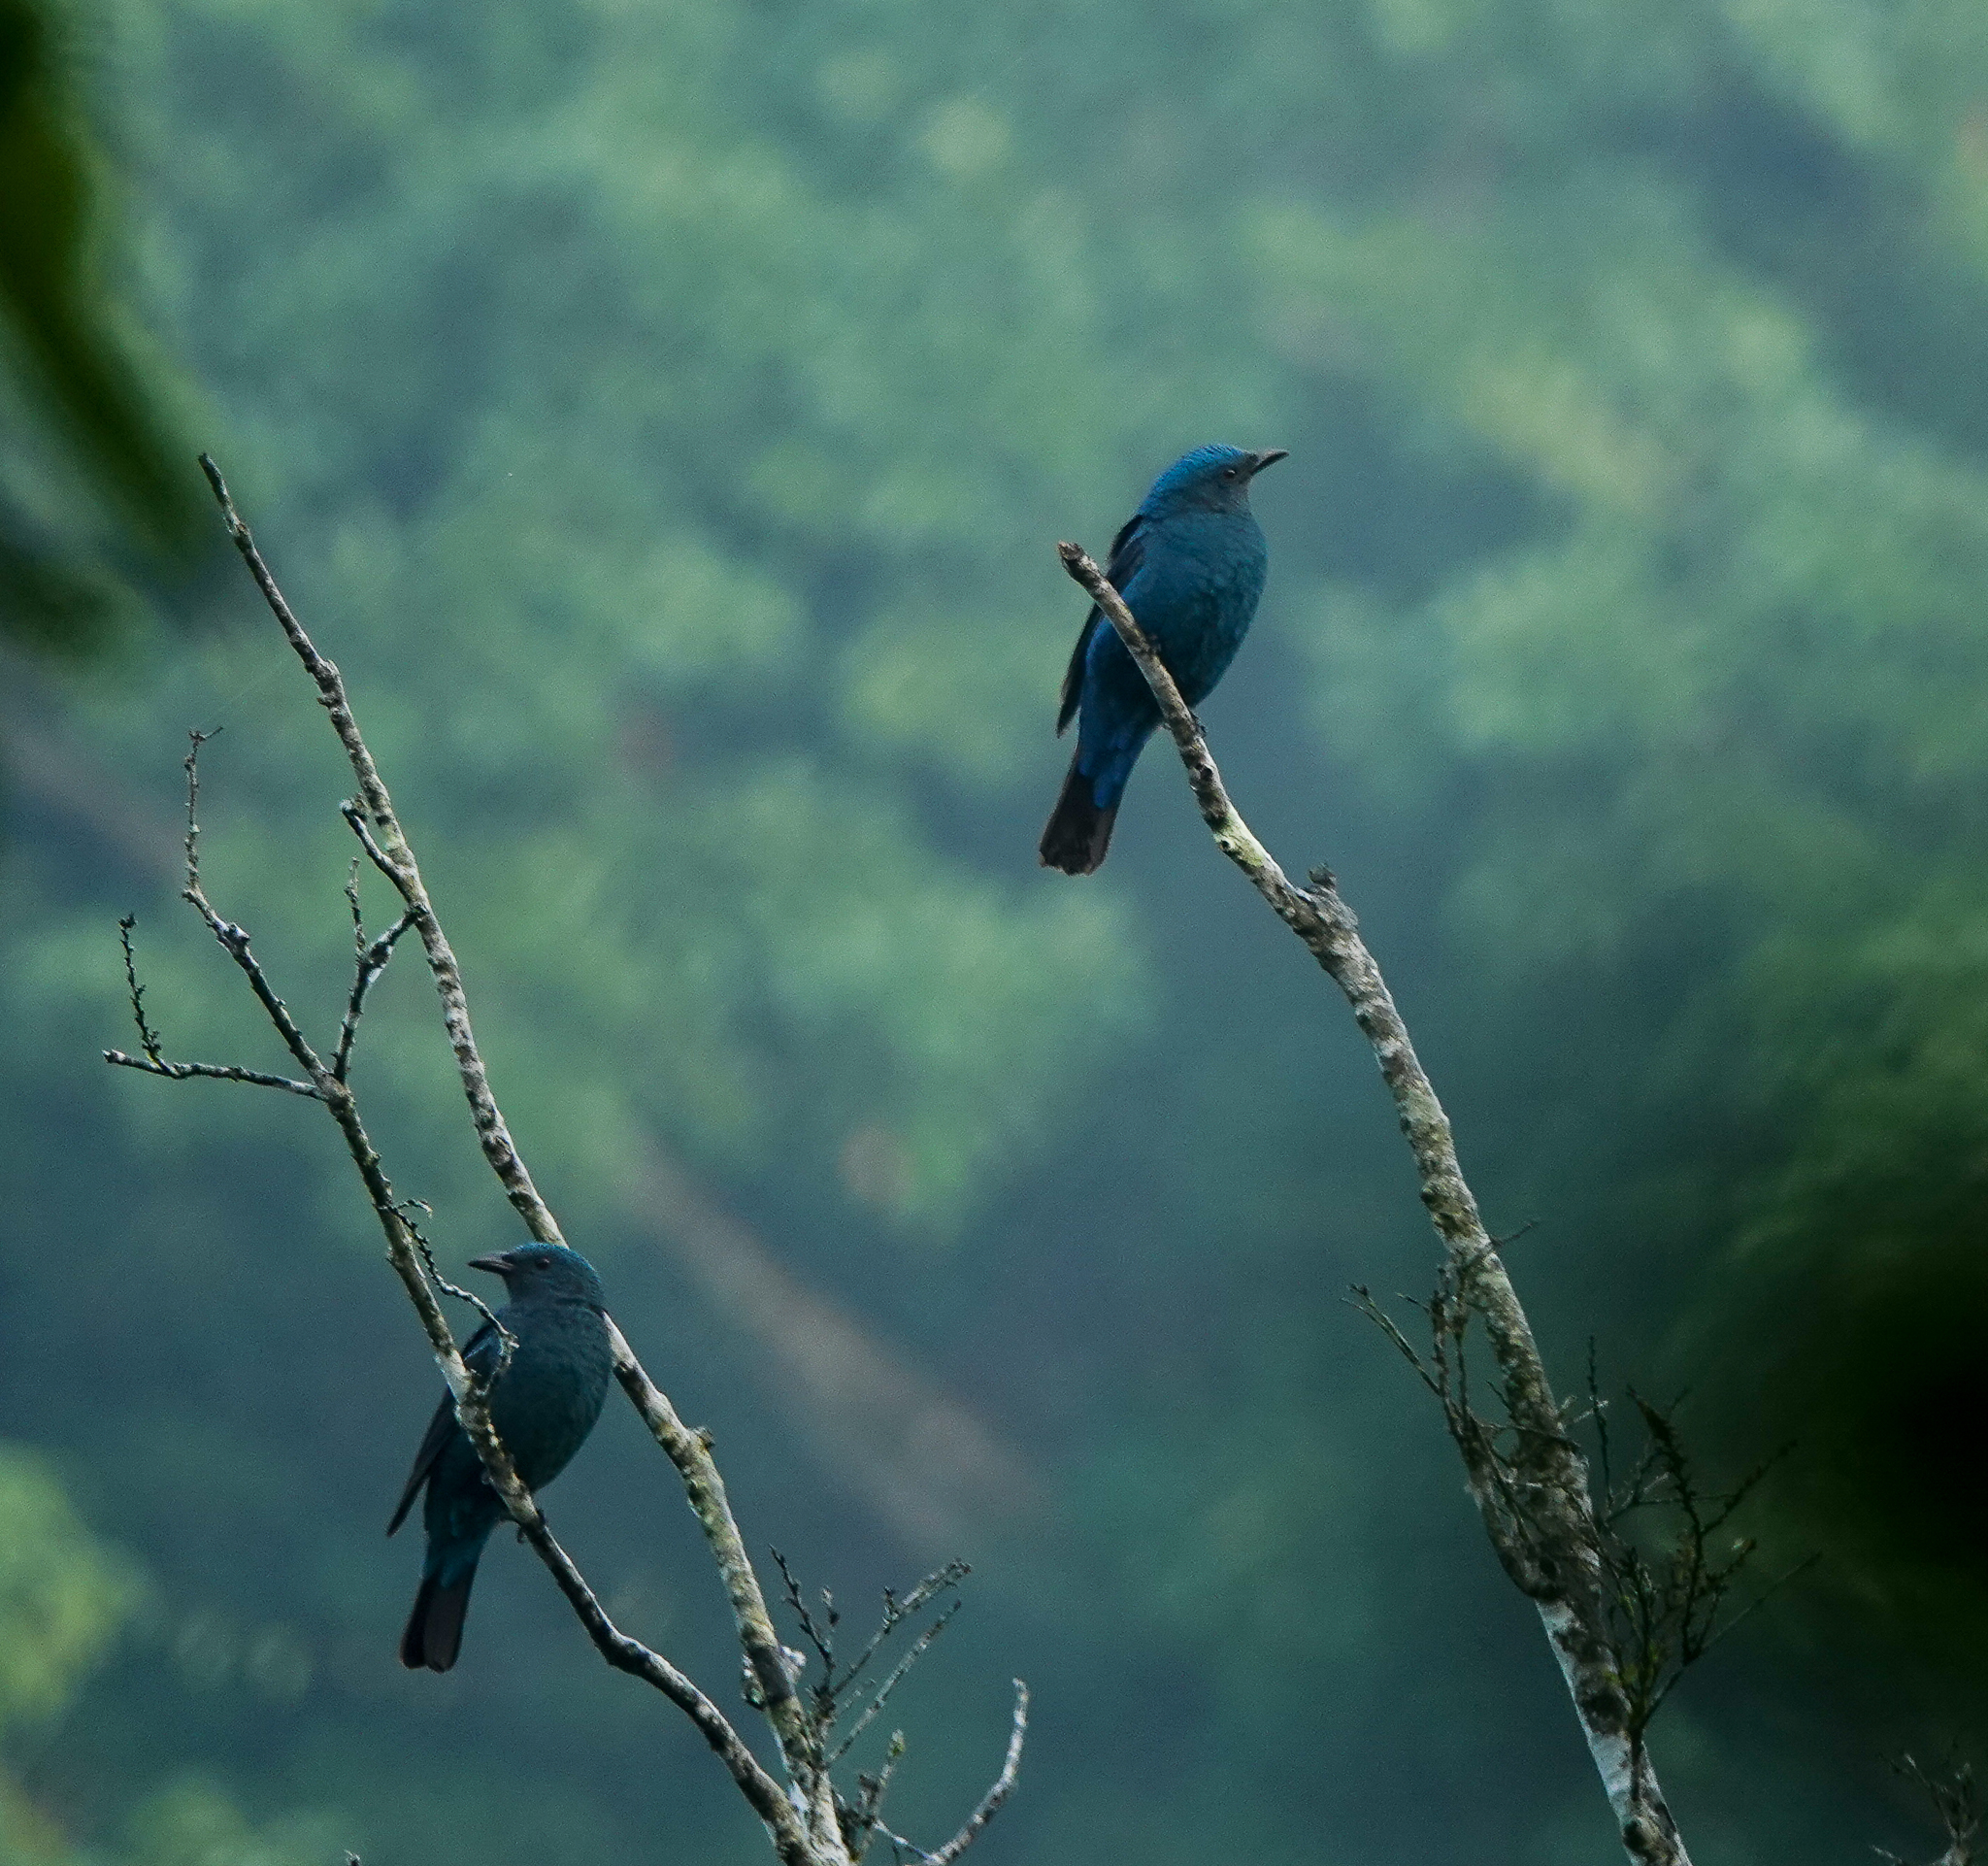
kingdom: Animalia
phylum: Chordata
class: Aves
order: Passeriformes
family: Irenidae
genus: Irena
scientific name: Irena puella
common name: Asian fairy-bluebird
